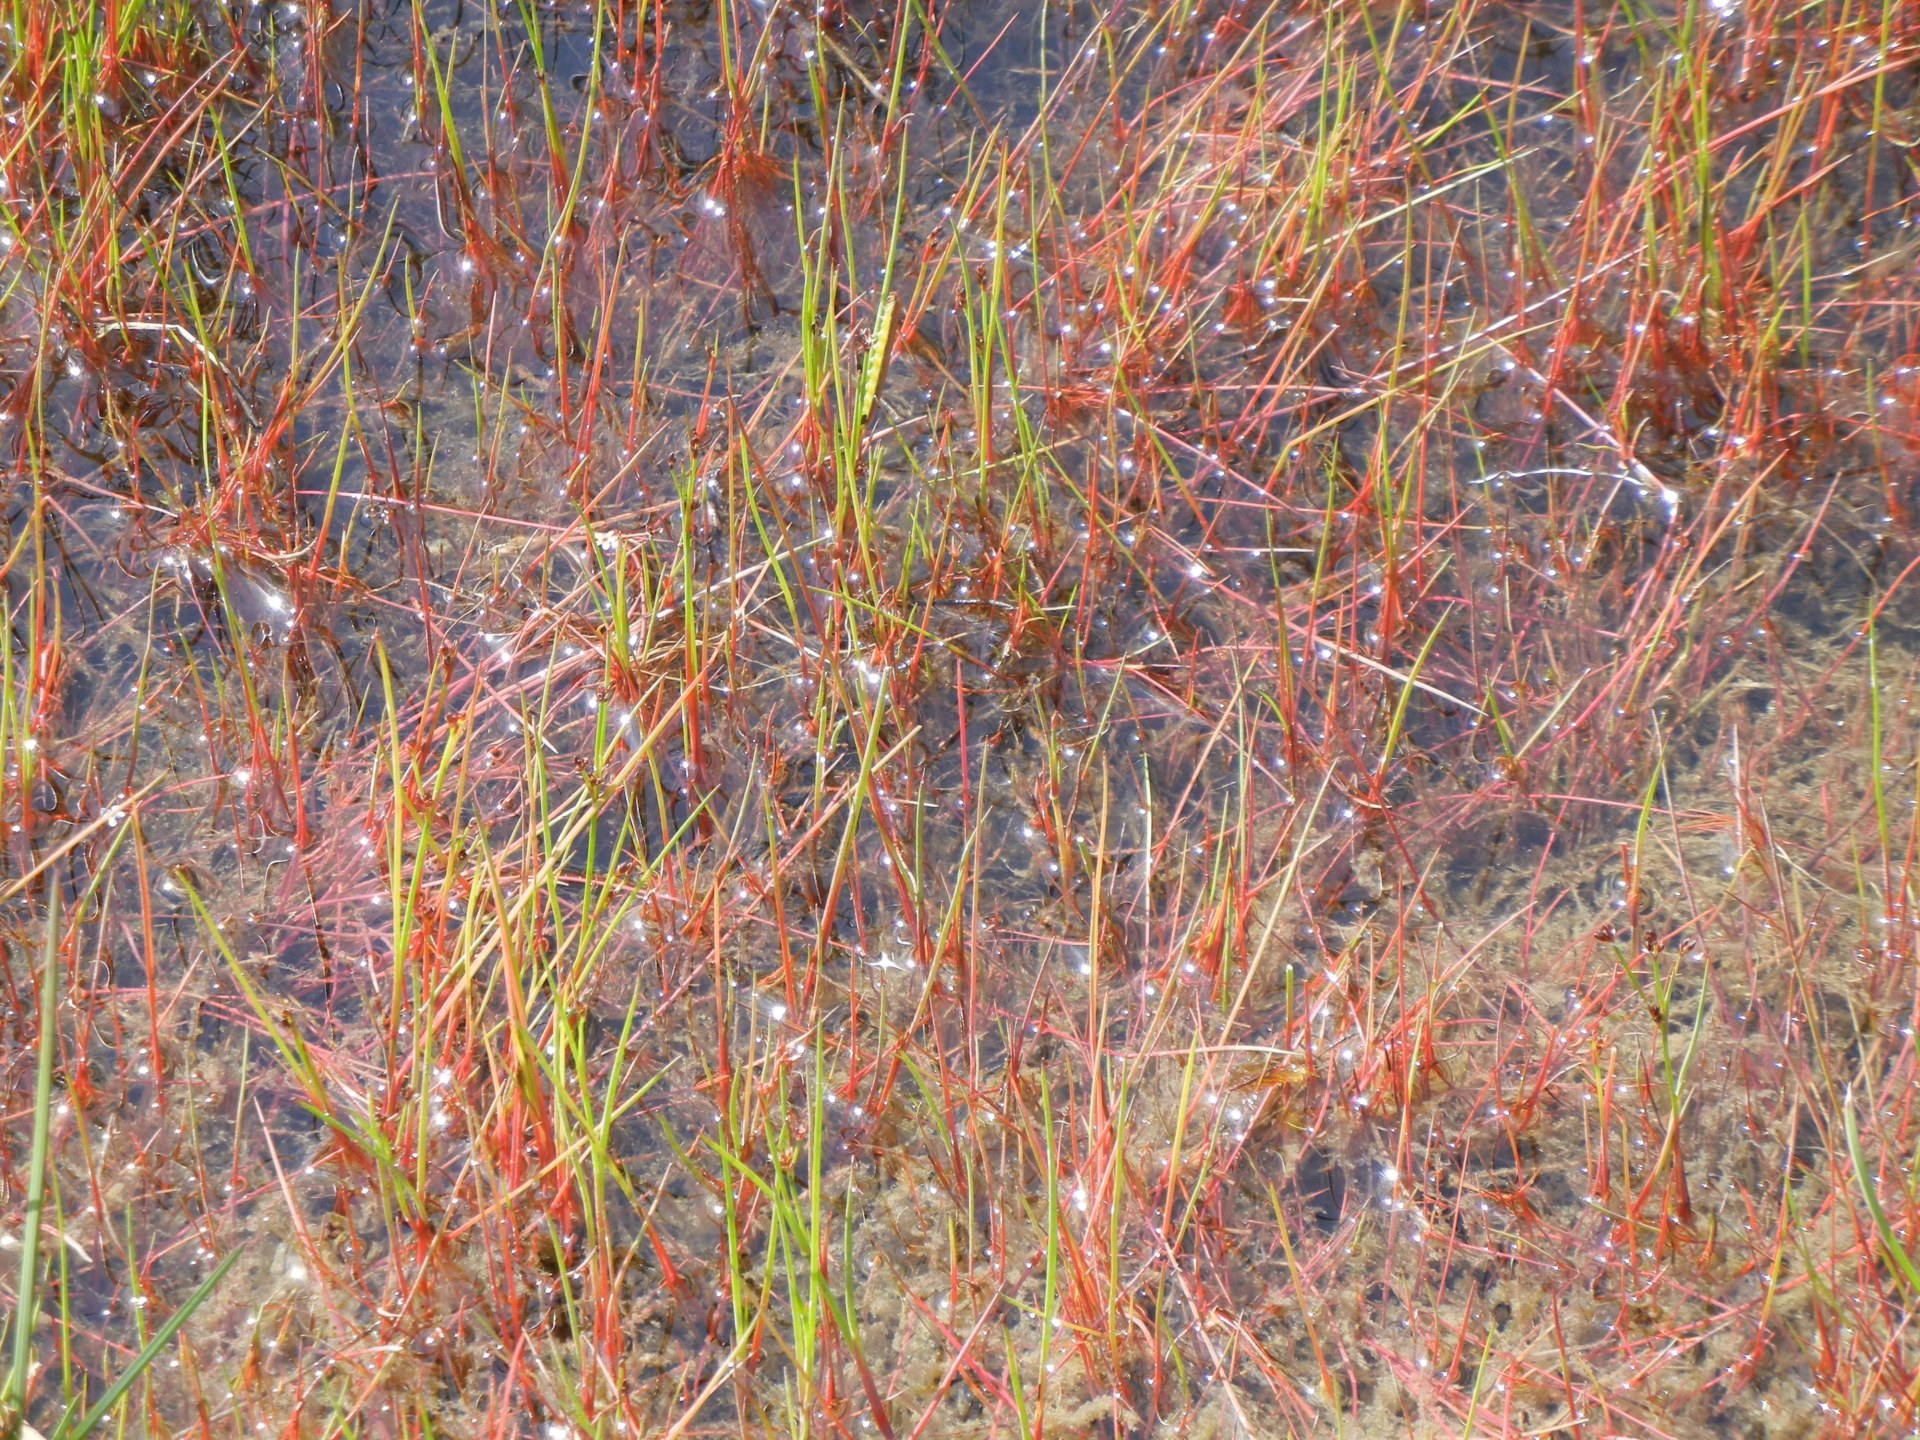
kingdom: Plantae
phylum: Tracheophyta
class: Liliopsida
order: Poales
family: Juncaceae
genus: Juncus
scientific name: Juncus bulbosus
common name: Bulbous rush
